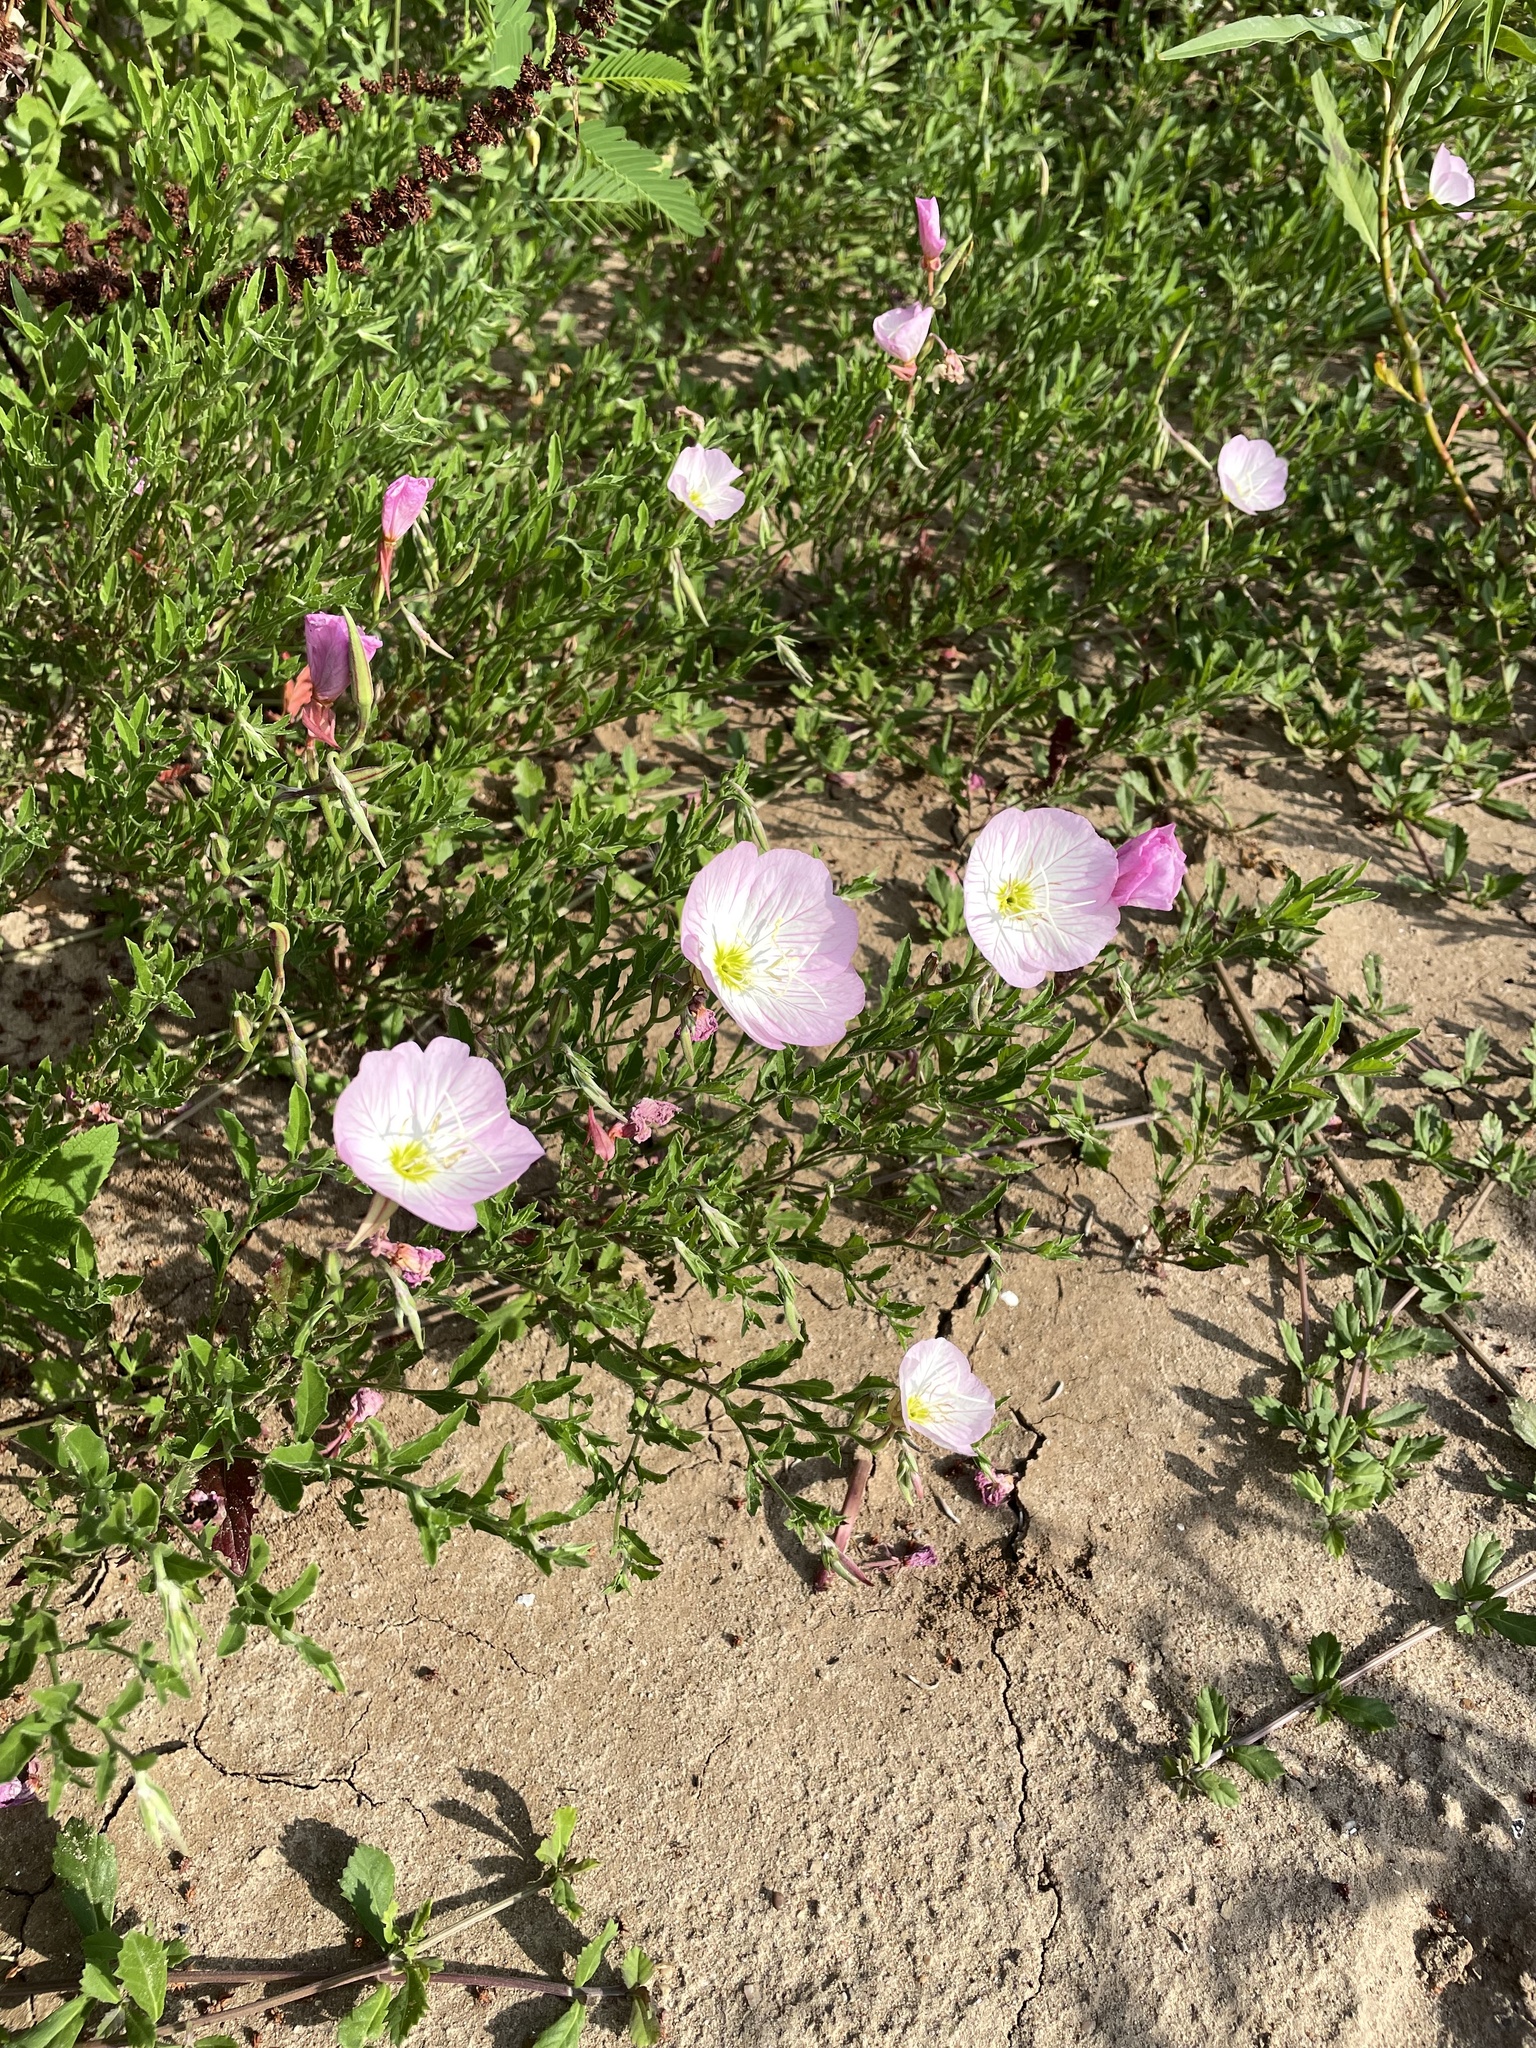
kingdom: Plantae
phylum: Tracheophyta
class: Magnoliopsida
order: Myrtales
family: Onagraceae
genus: Oenothera
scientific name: Oenothera speciosa
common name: White evening-primrose
